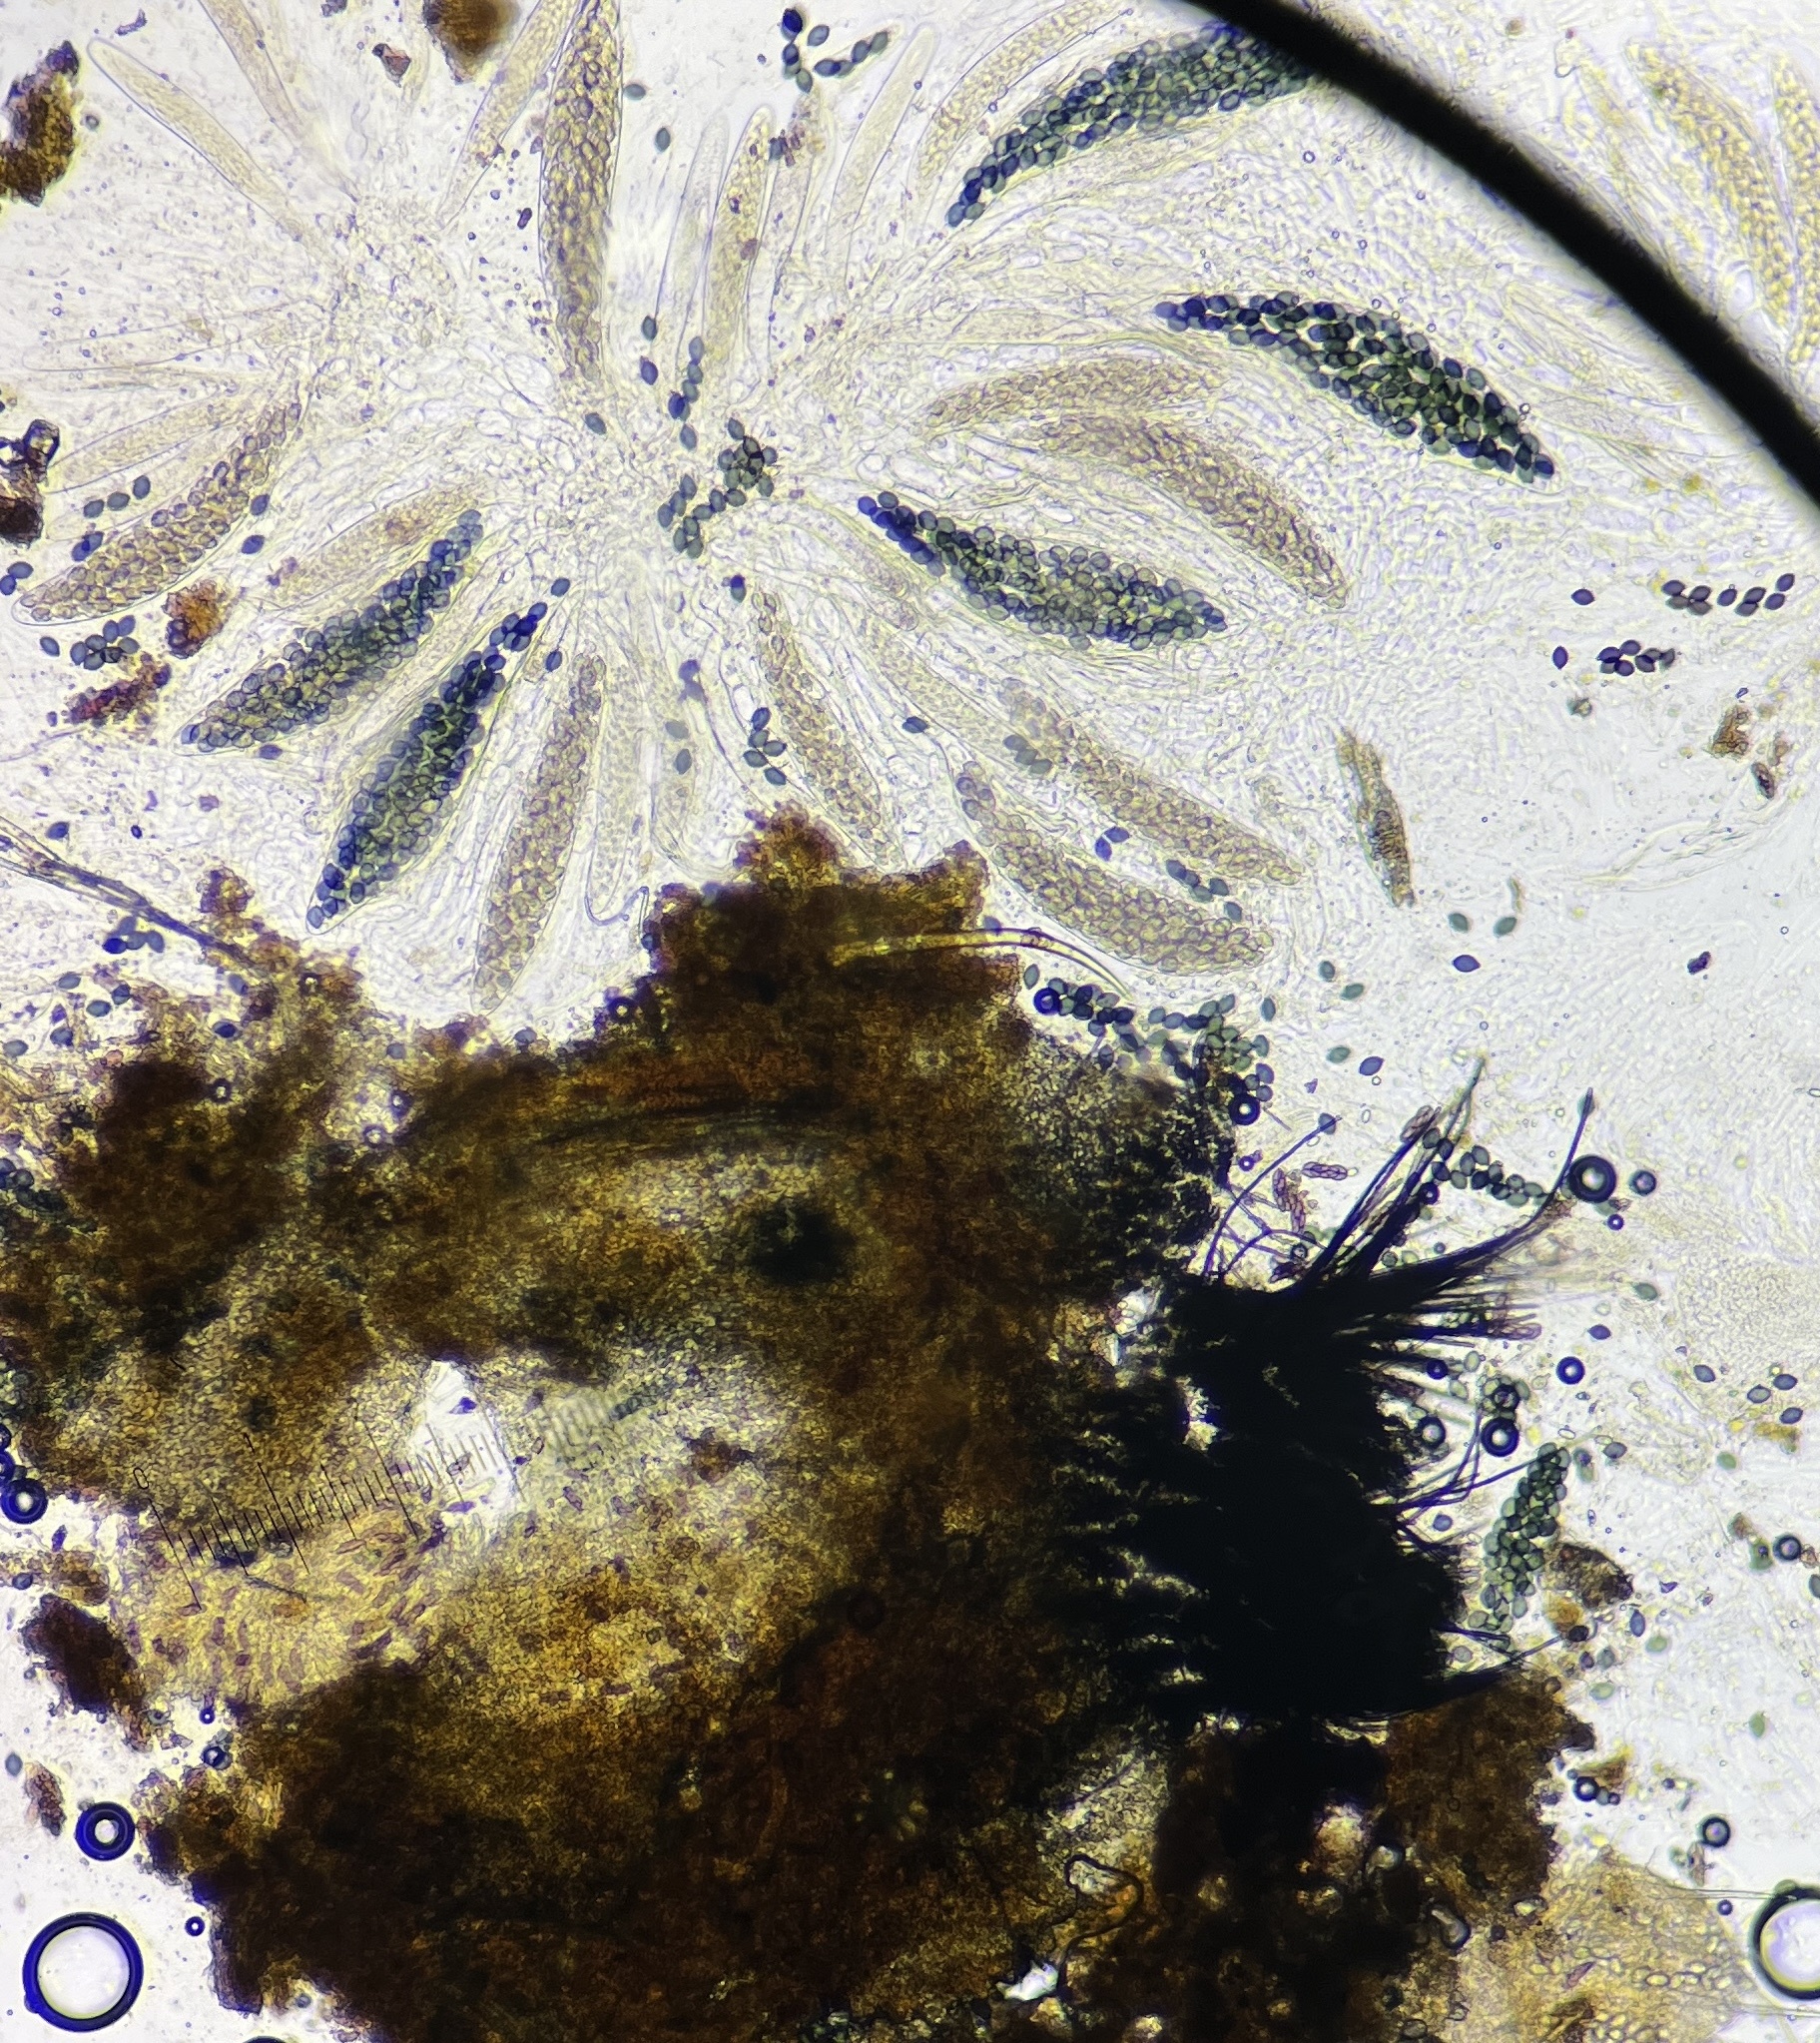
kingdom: Fungi
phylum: Ascomycota
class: Sordariomycetes
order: Sordariales
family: Podosporaceae
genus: Podospora
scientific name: Podospora collapsa
